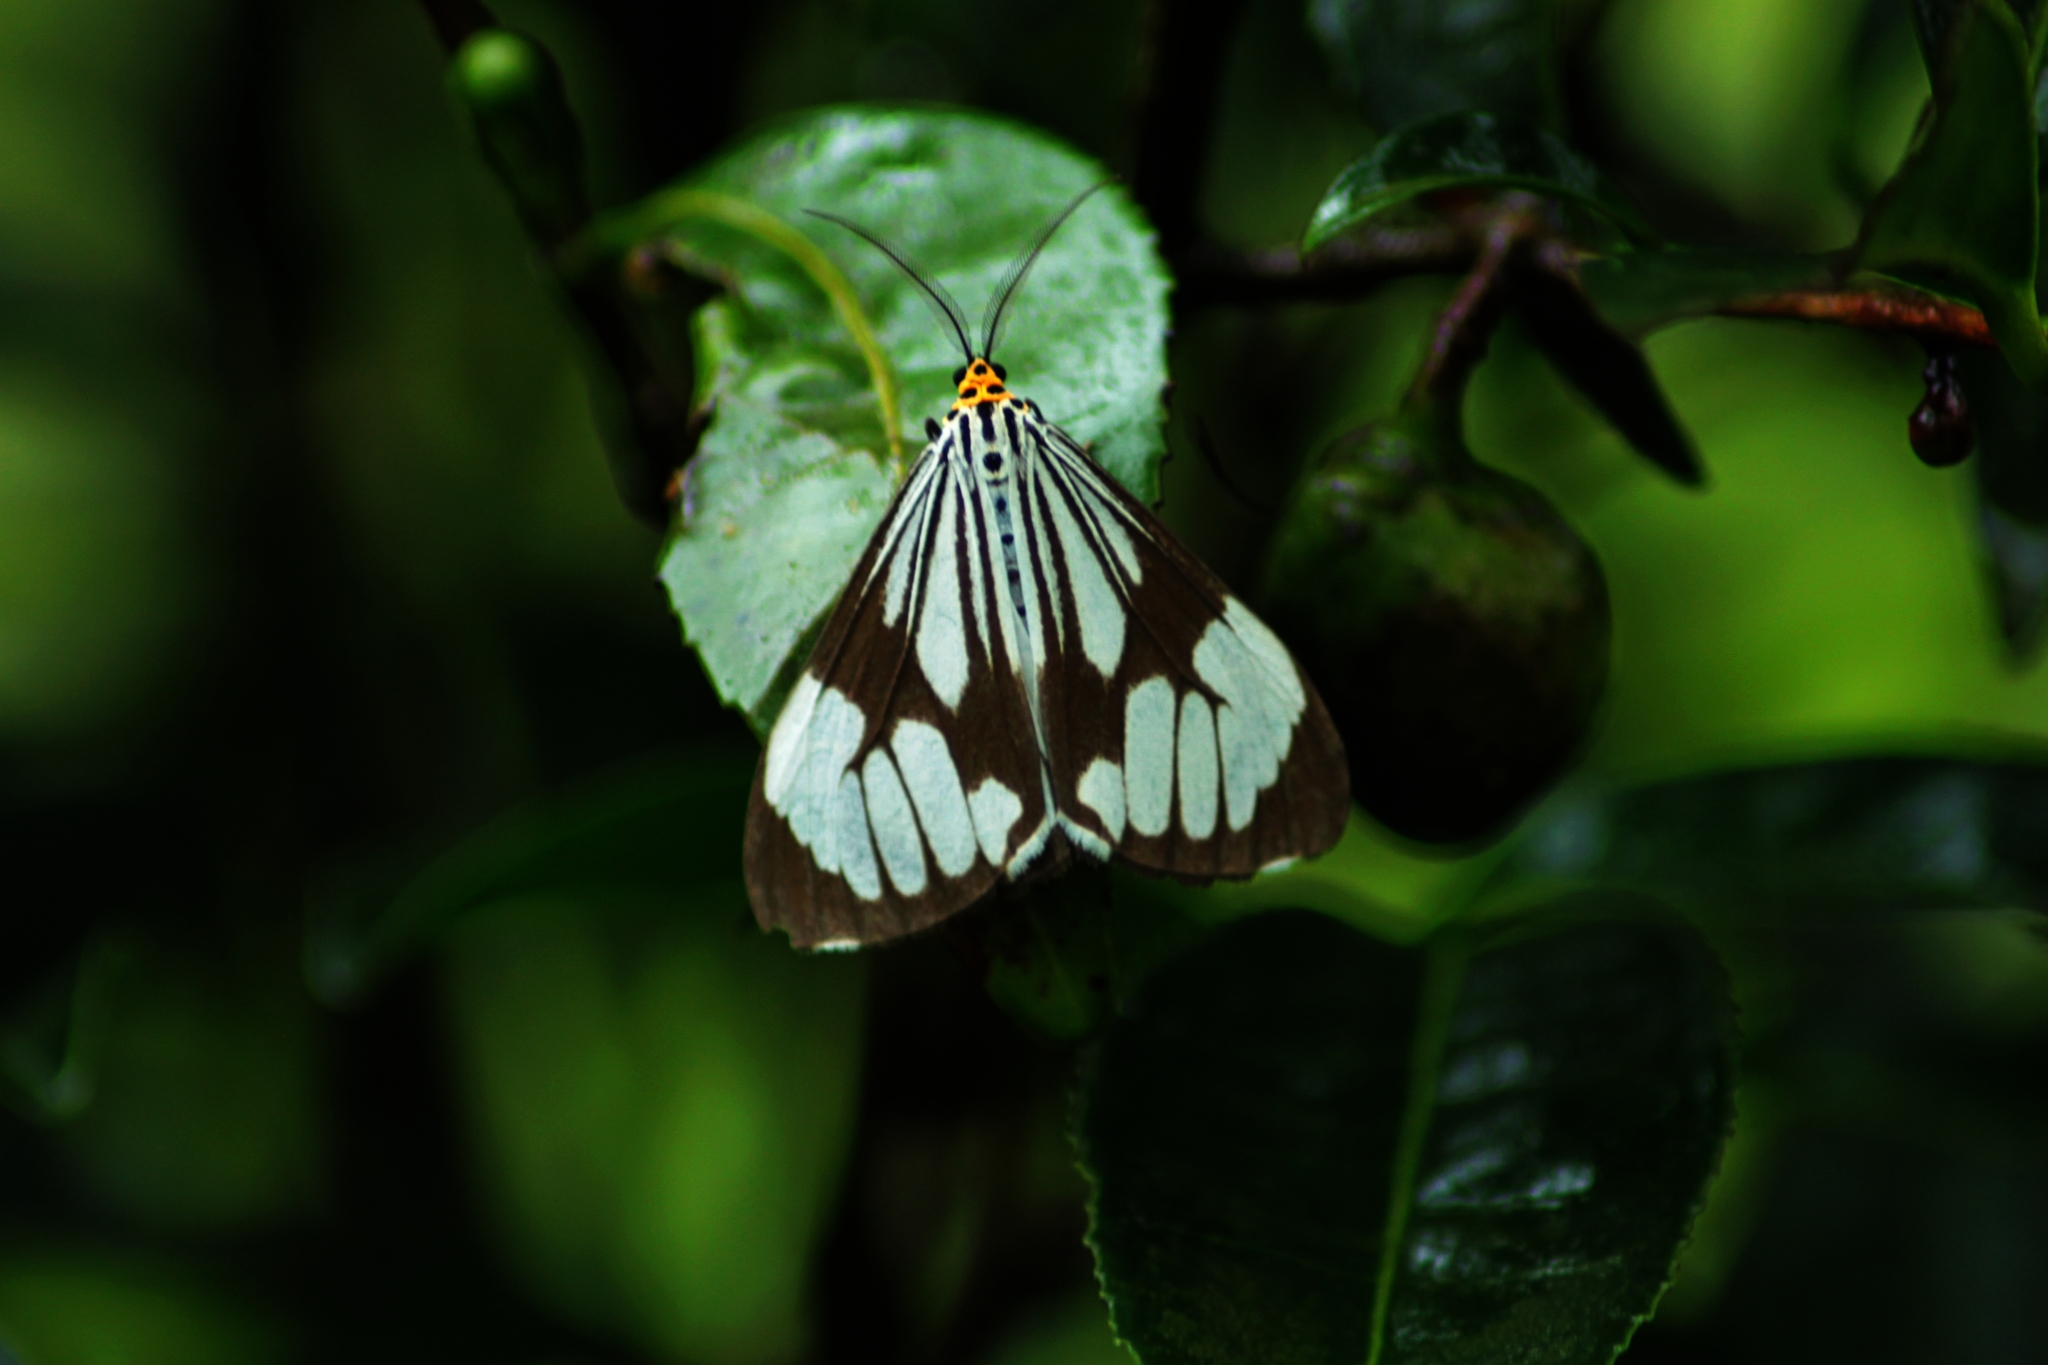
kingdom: Animalia
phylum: Arthropoda
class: Insecta
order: Lepidoptera
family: Erebidae
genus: Nyctemera
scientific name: Nyctemera coleta
